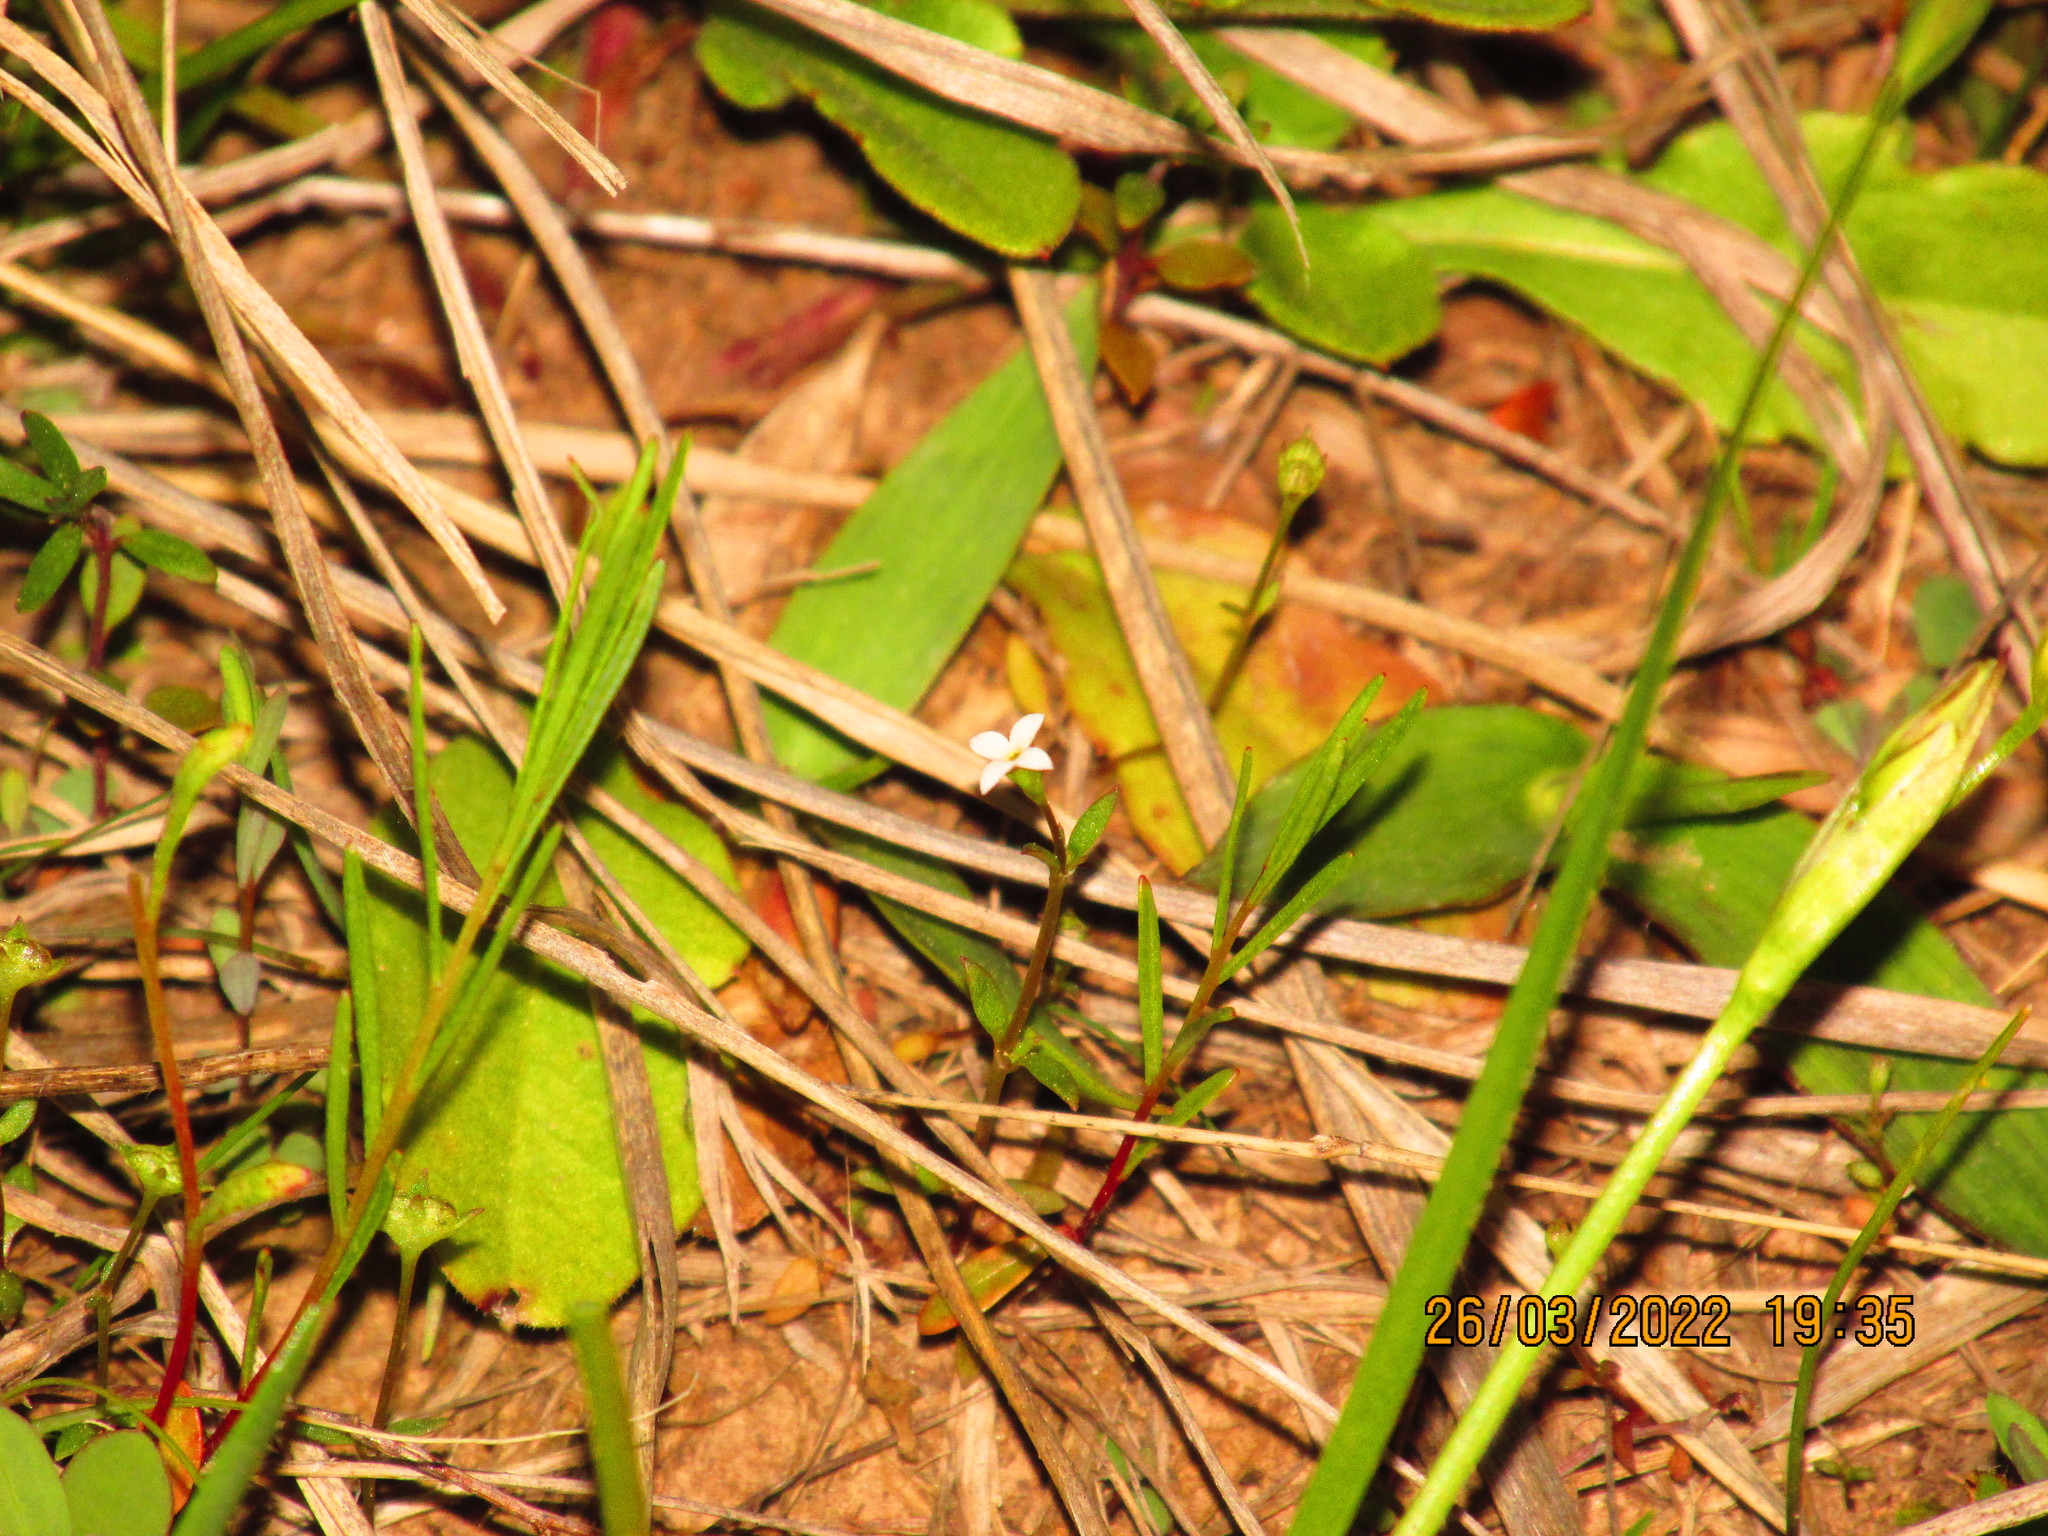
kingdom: Plantae
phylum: Tracheophyta
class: Magnoliopsida
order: Gentianales
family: Rubiaceae
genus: Houstonia
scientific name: Houstonia micrantha
